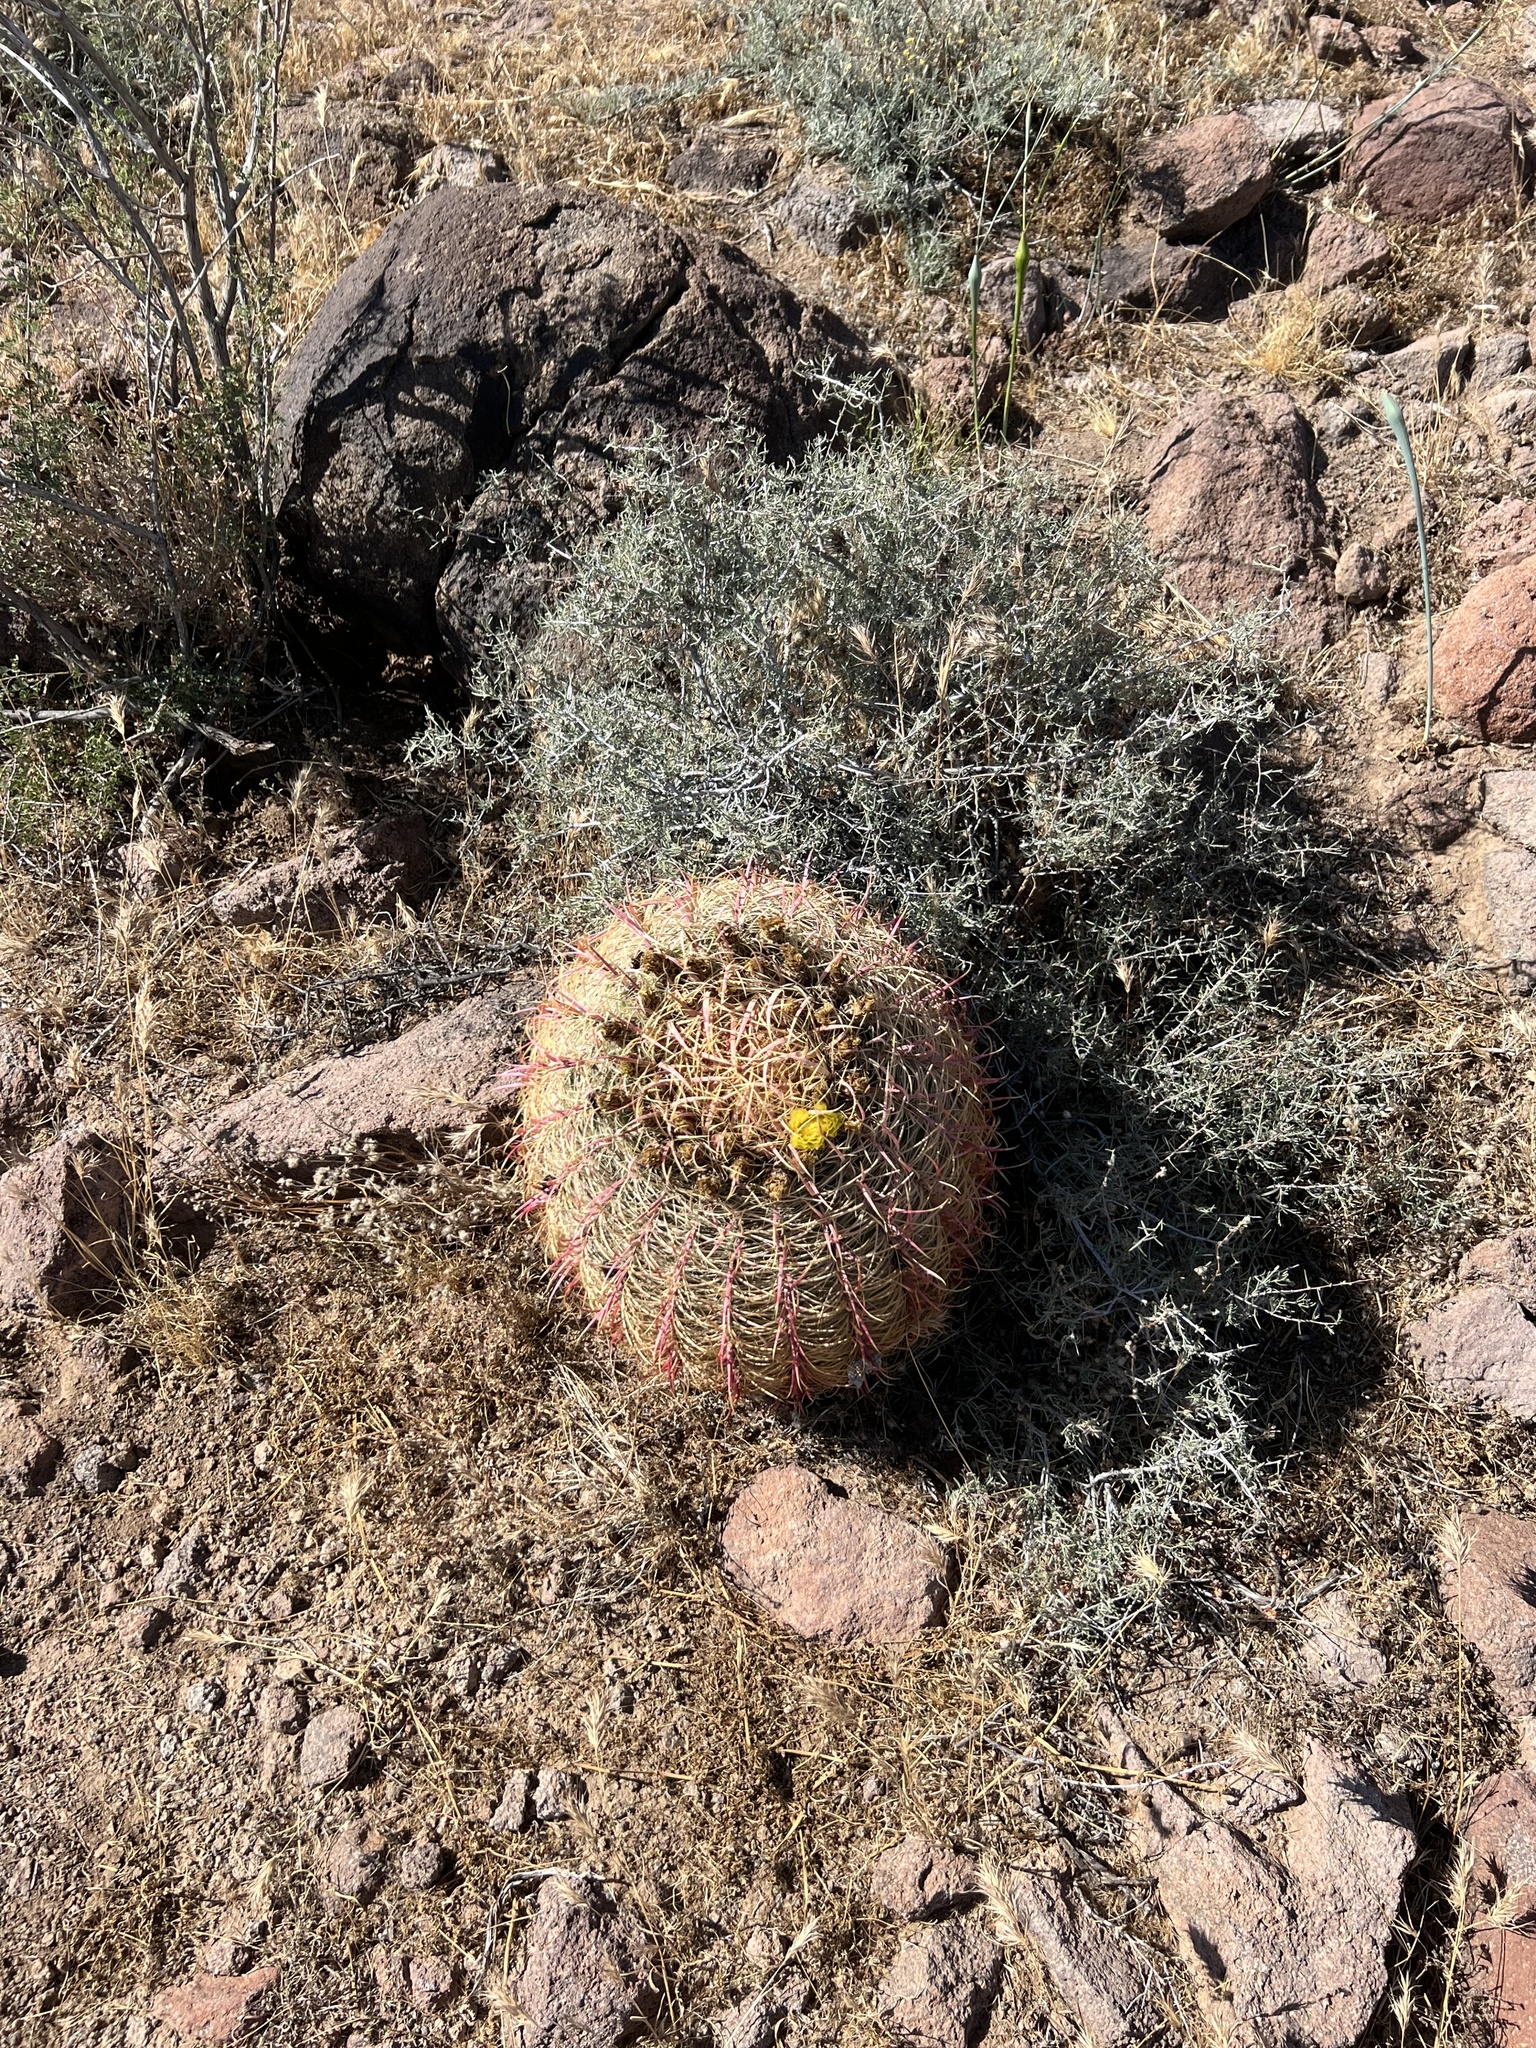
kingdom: Plantae
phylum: Tracheophyta
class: Magnoliopsida
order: Caryophyllales
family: Cactaceae
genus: Ferocactus
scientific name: Ferocactus cylindraceus
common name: California barrel cactus
